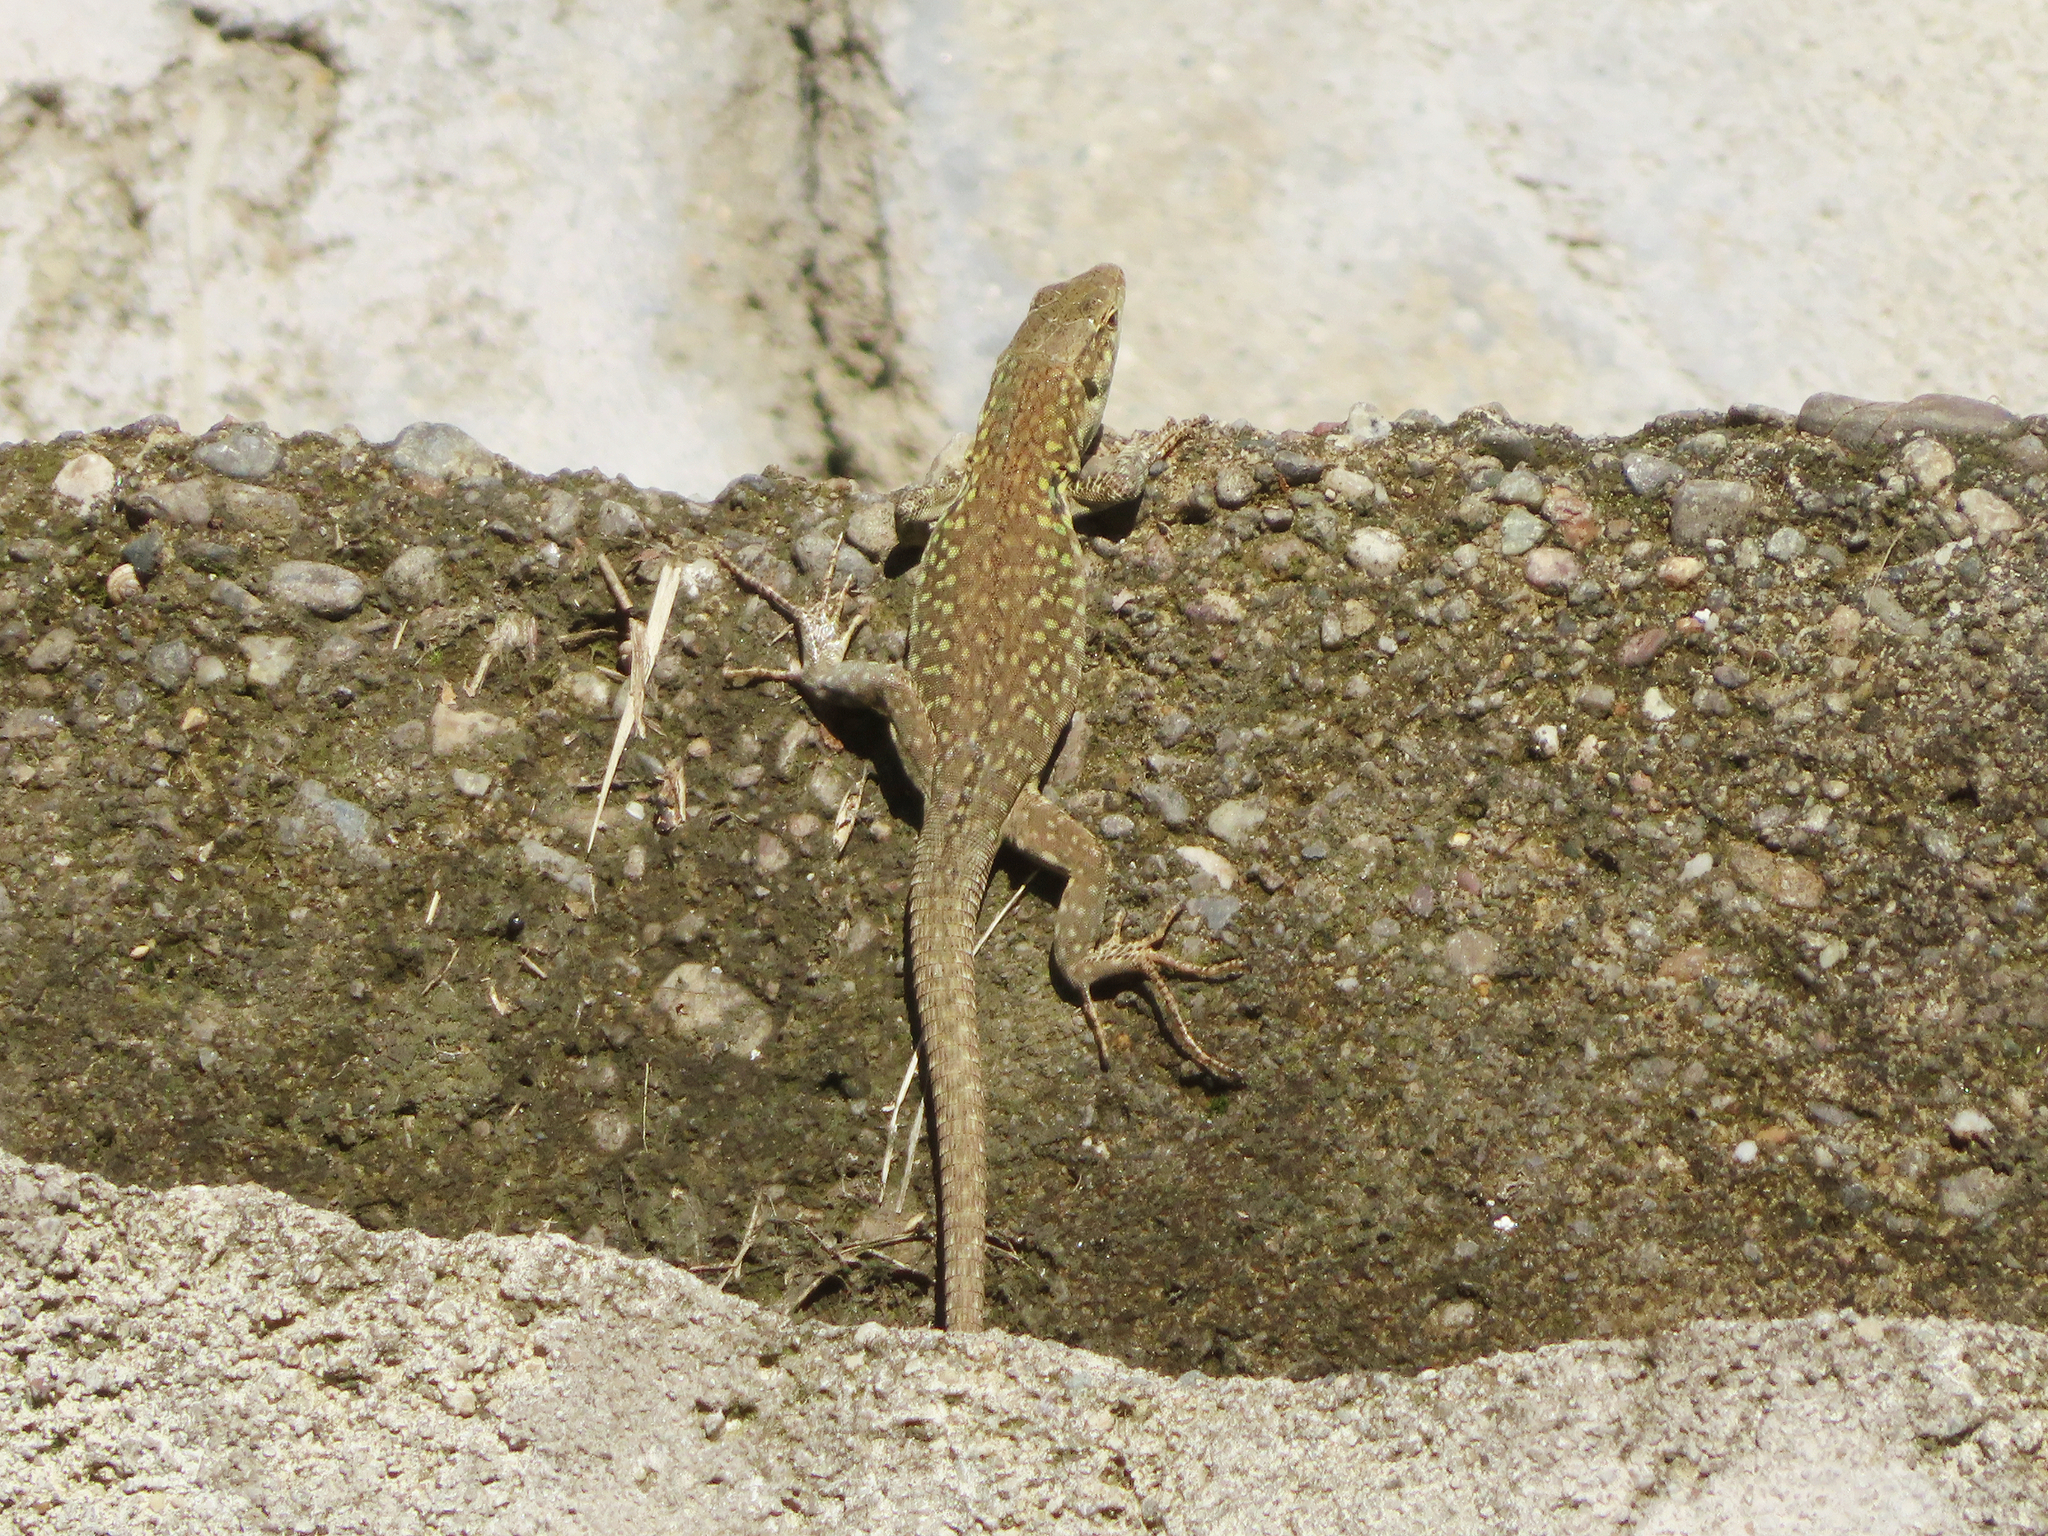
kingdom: Animalia
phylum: Chordata
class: Squamata
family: Lacertidae
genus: Podarcis
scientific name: Podarcis siculus
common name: Italian wall lizard
